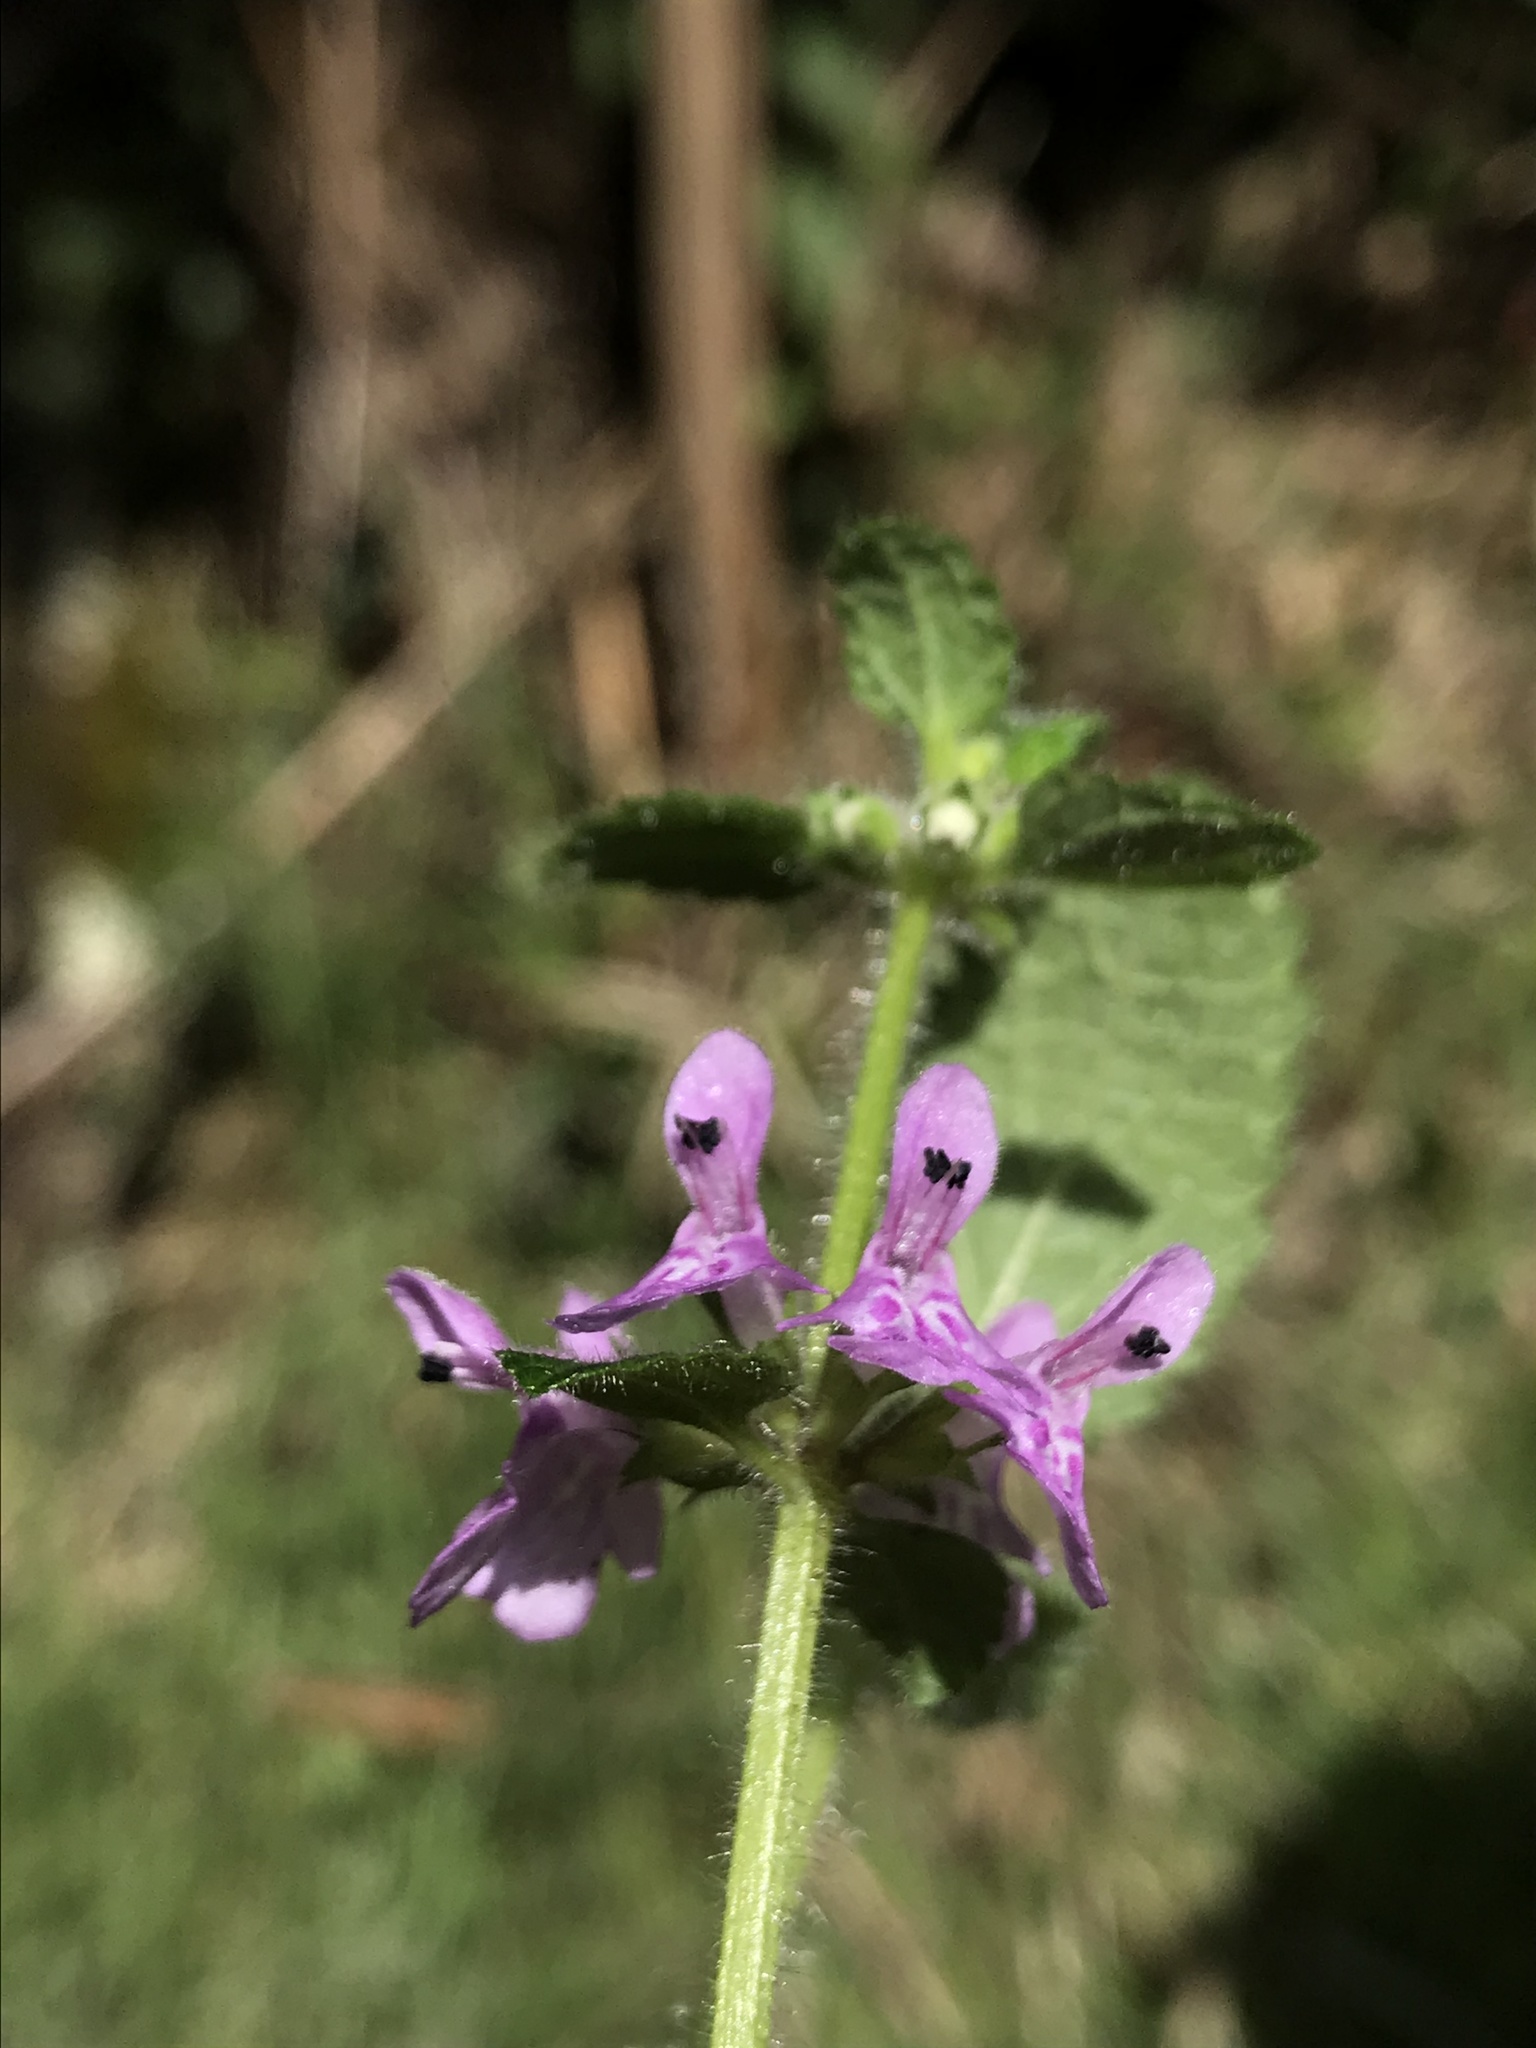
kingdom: Plantae
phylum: Tracheophyta
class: Magnoliopsida
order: Lamiales
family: Lamiaceae
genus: Stachys
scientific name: Stachys bogotensis
